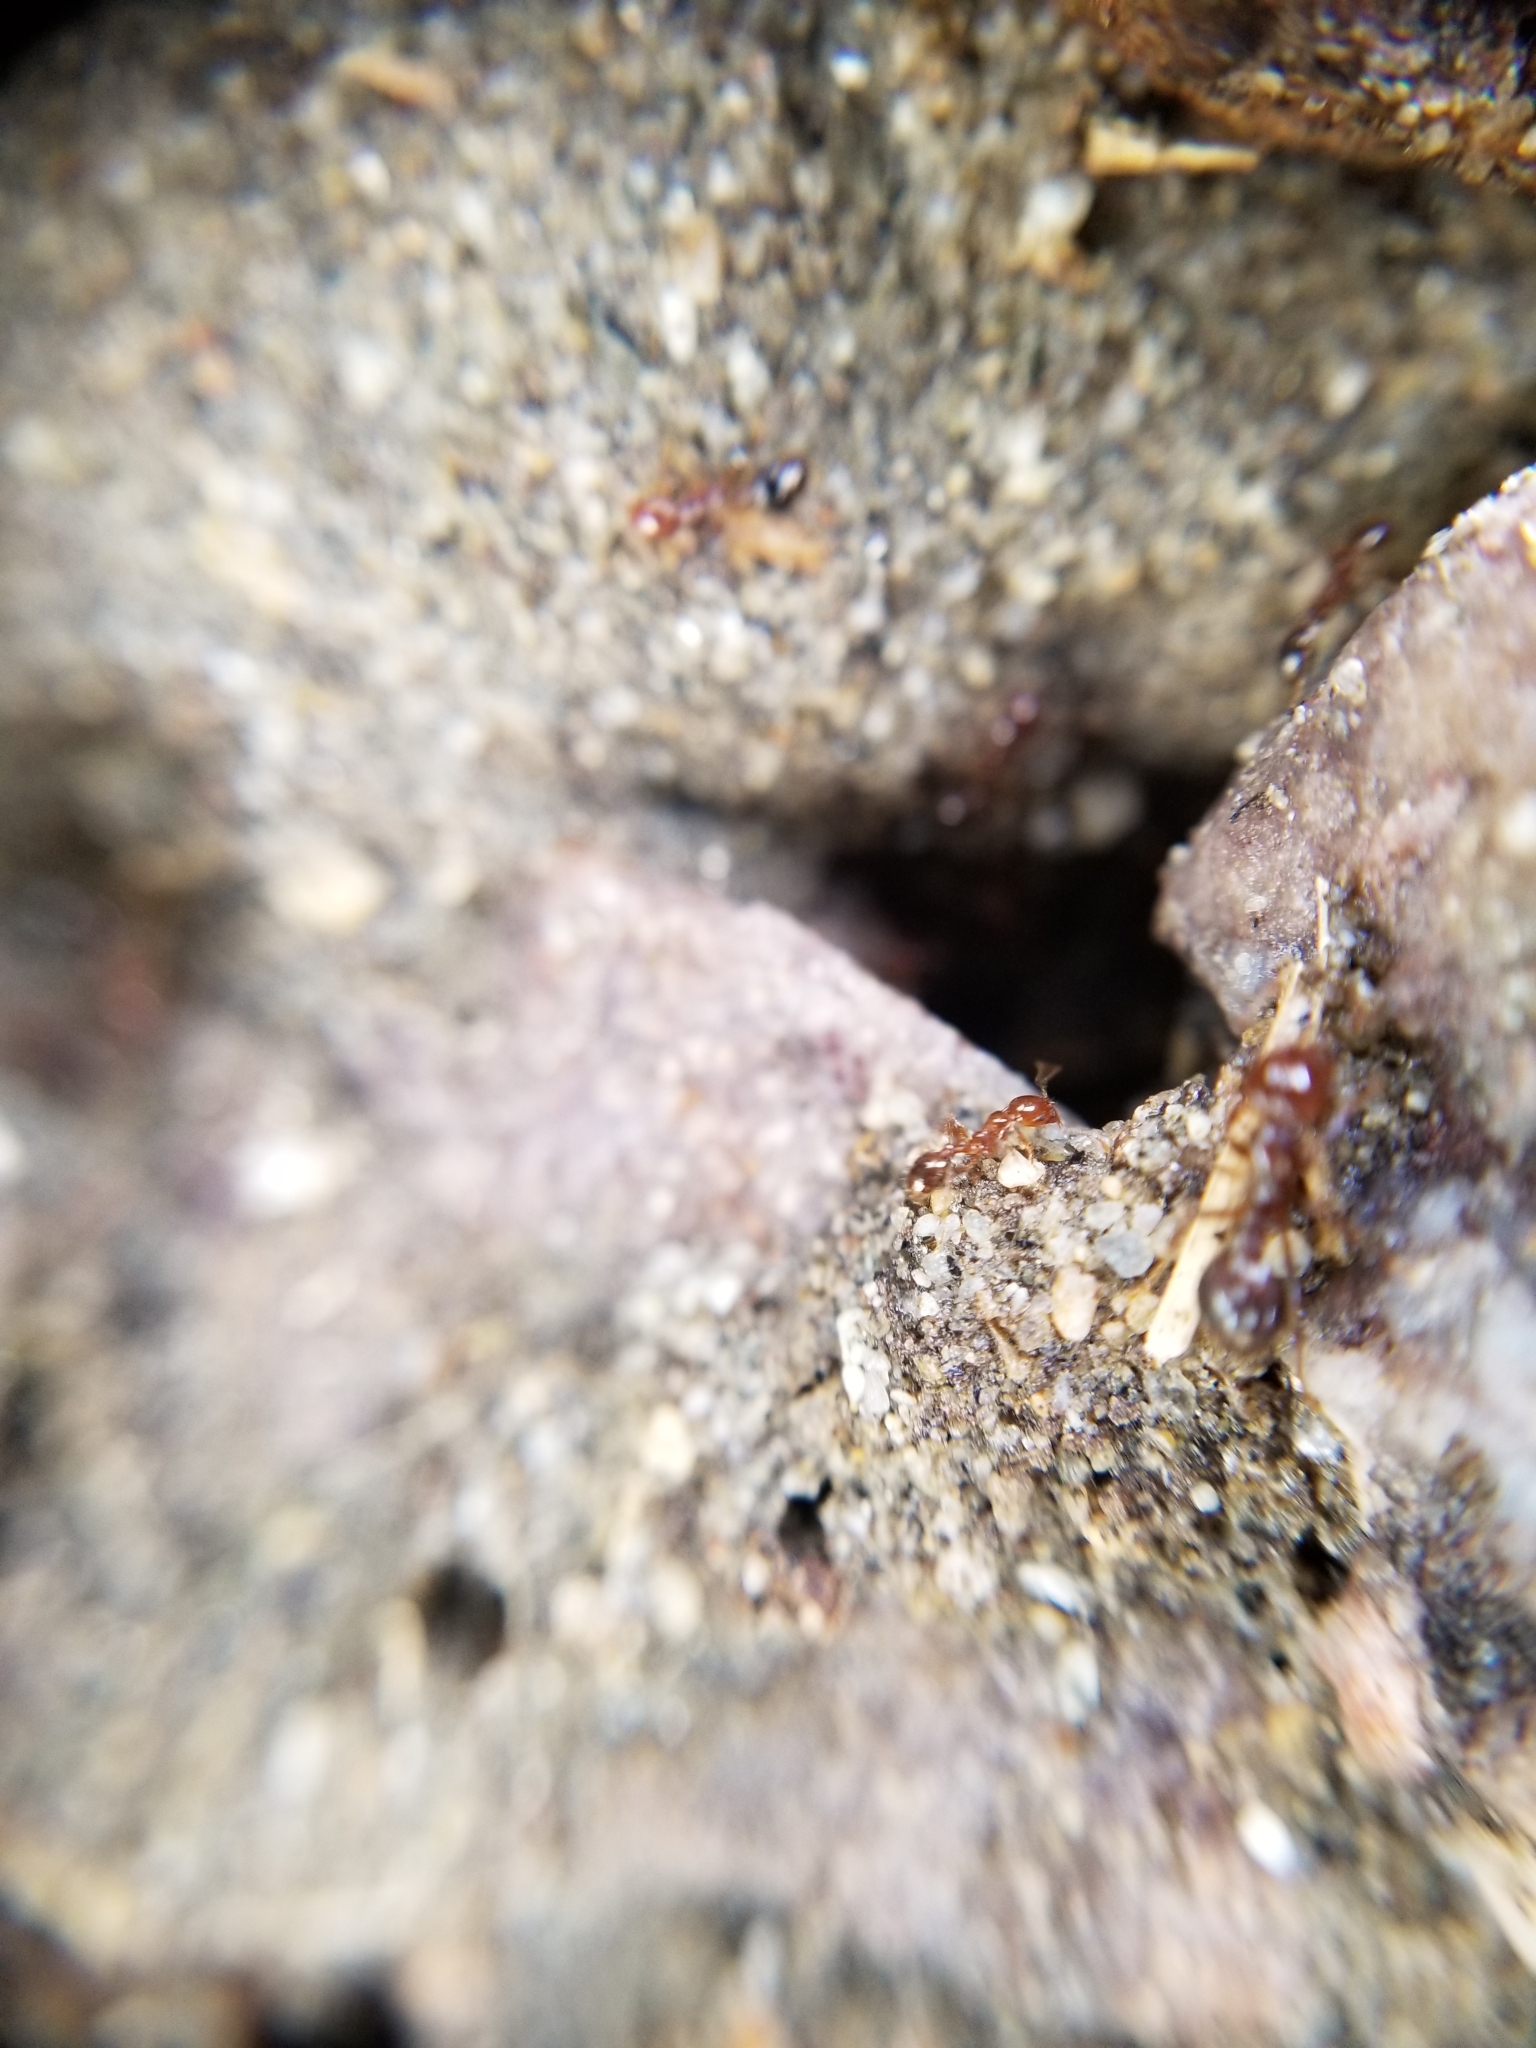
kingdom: Animalia
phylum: Arthropoda
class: Insecta
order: Hymenoptera
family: Formicidae
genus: Solenopsis
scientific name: Solenopsis xyloni
